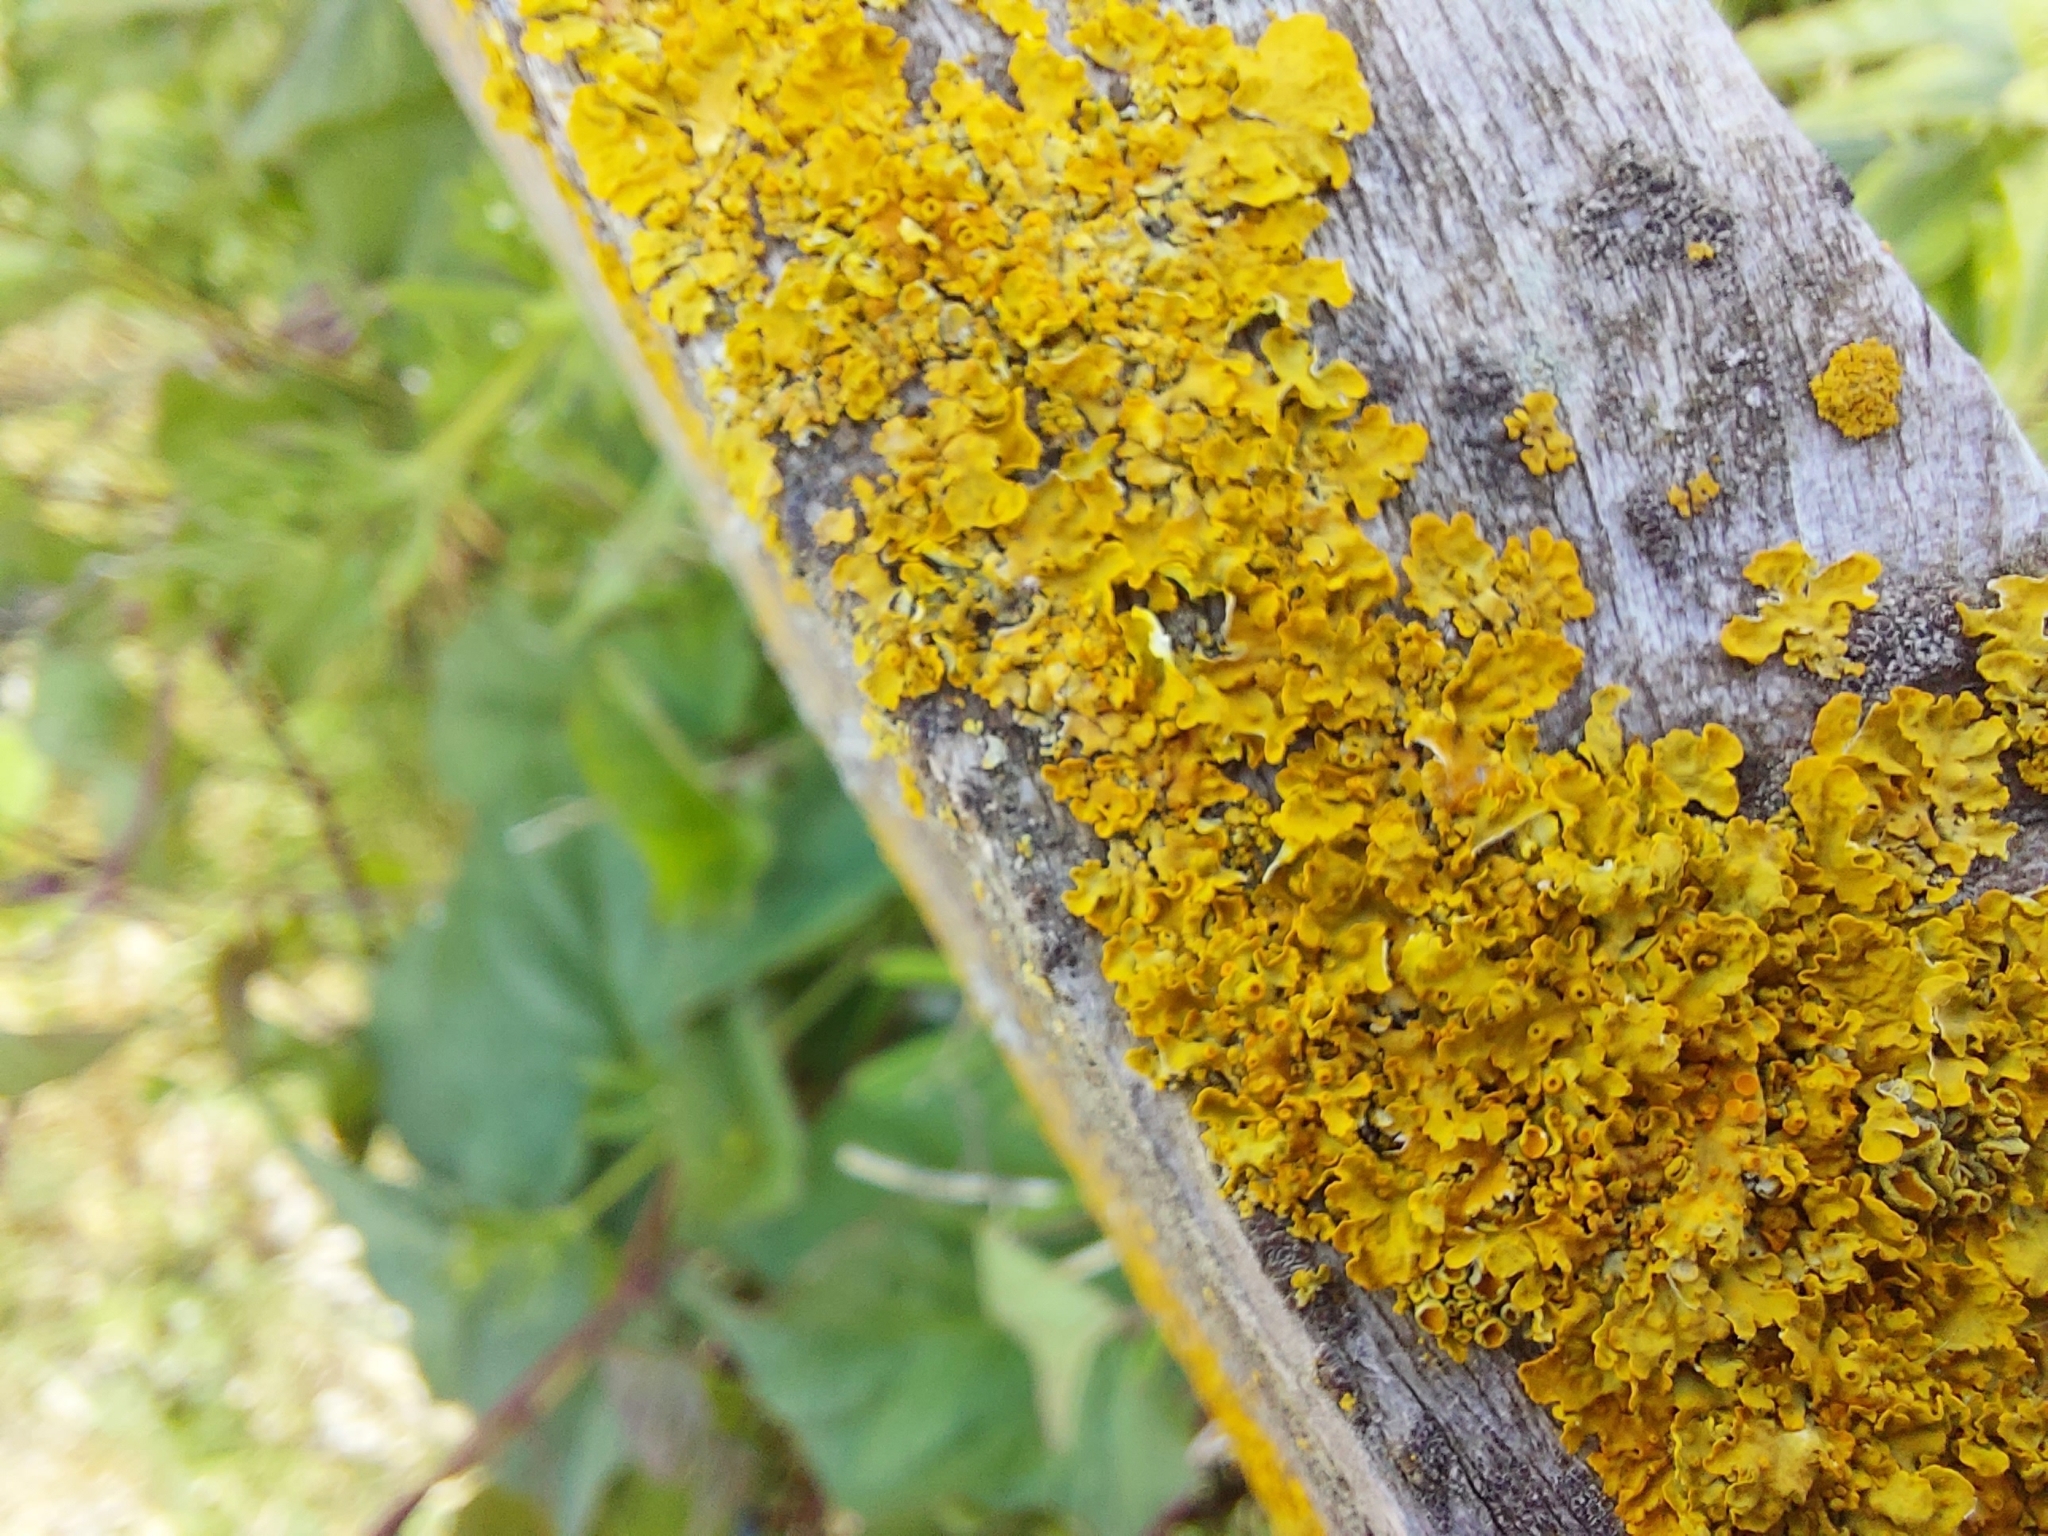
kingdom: Fungi
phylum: Ascomycota
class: Lecanoromycetes
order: Teloschistales
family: Teloschistaceae
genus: Xanthoria
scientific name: Xanthoria parietina
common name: Common orange lichen
